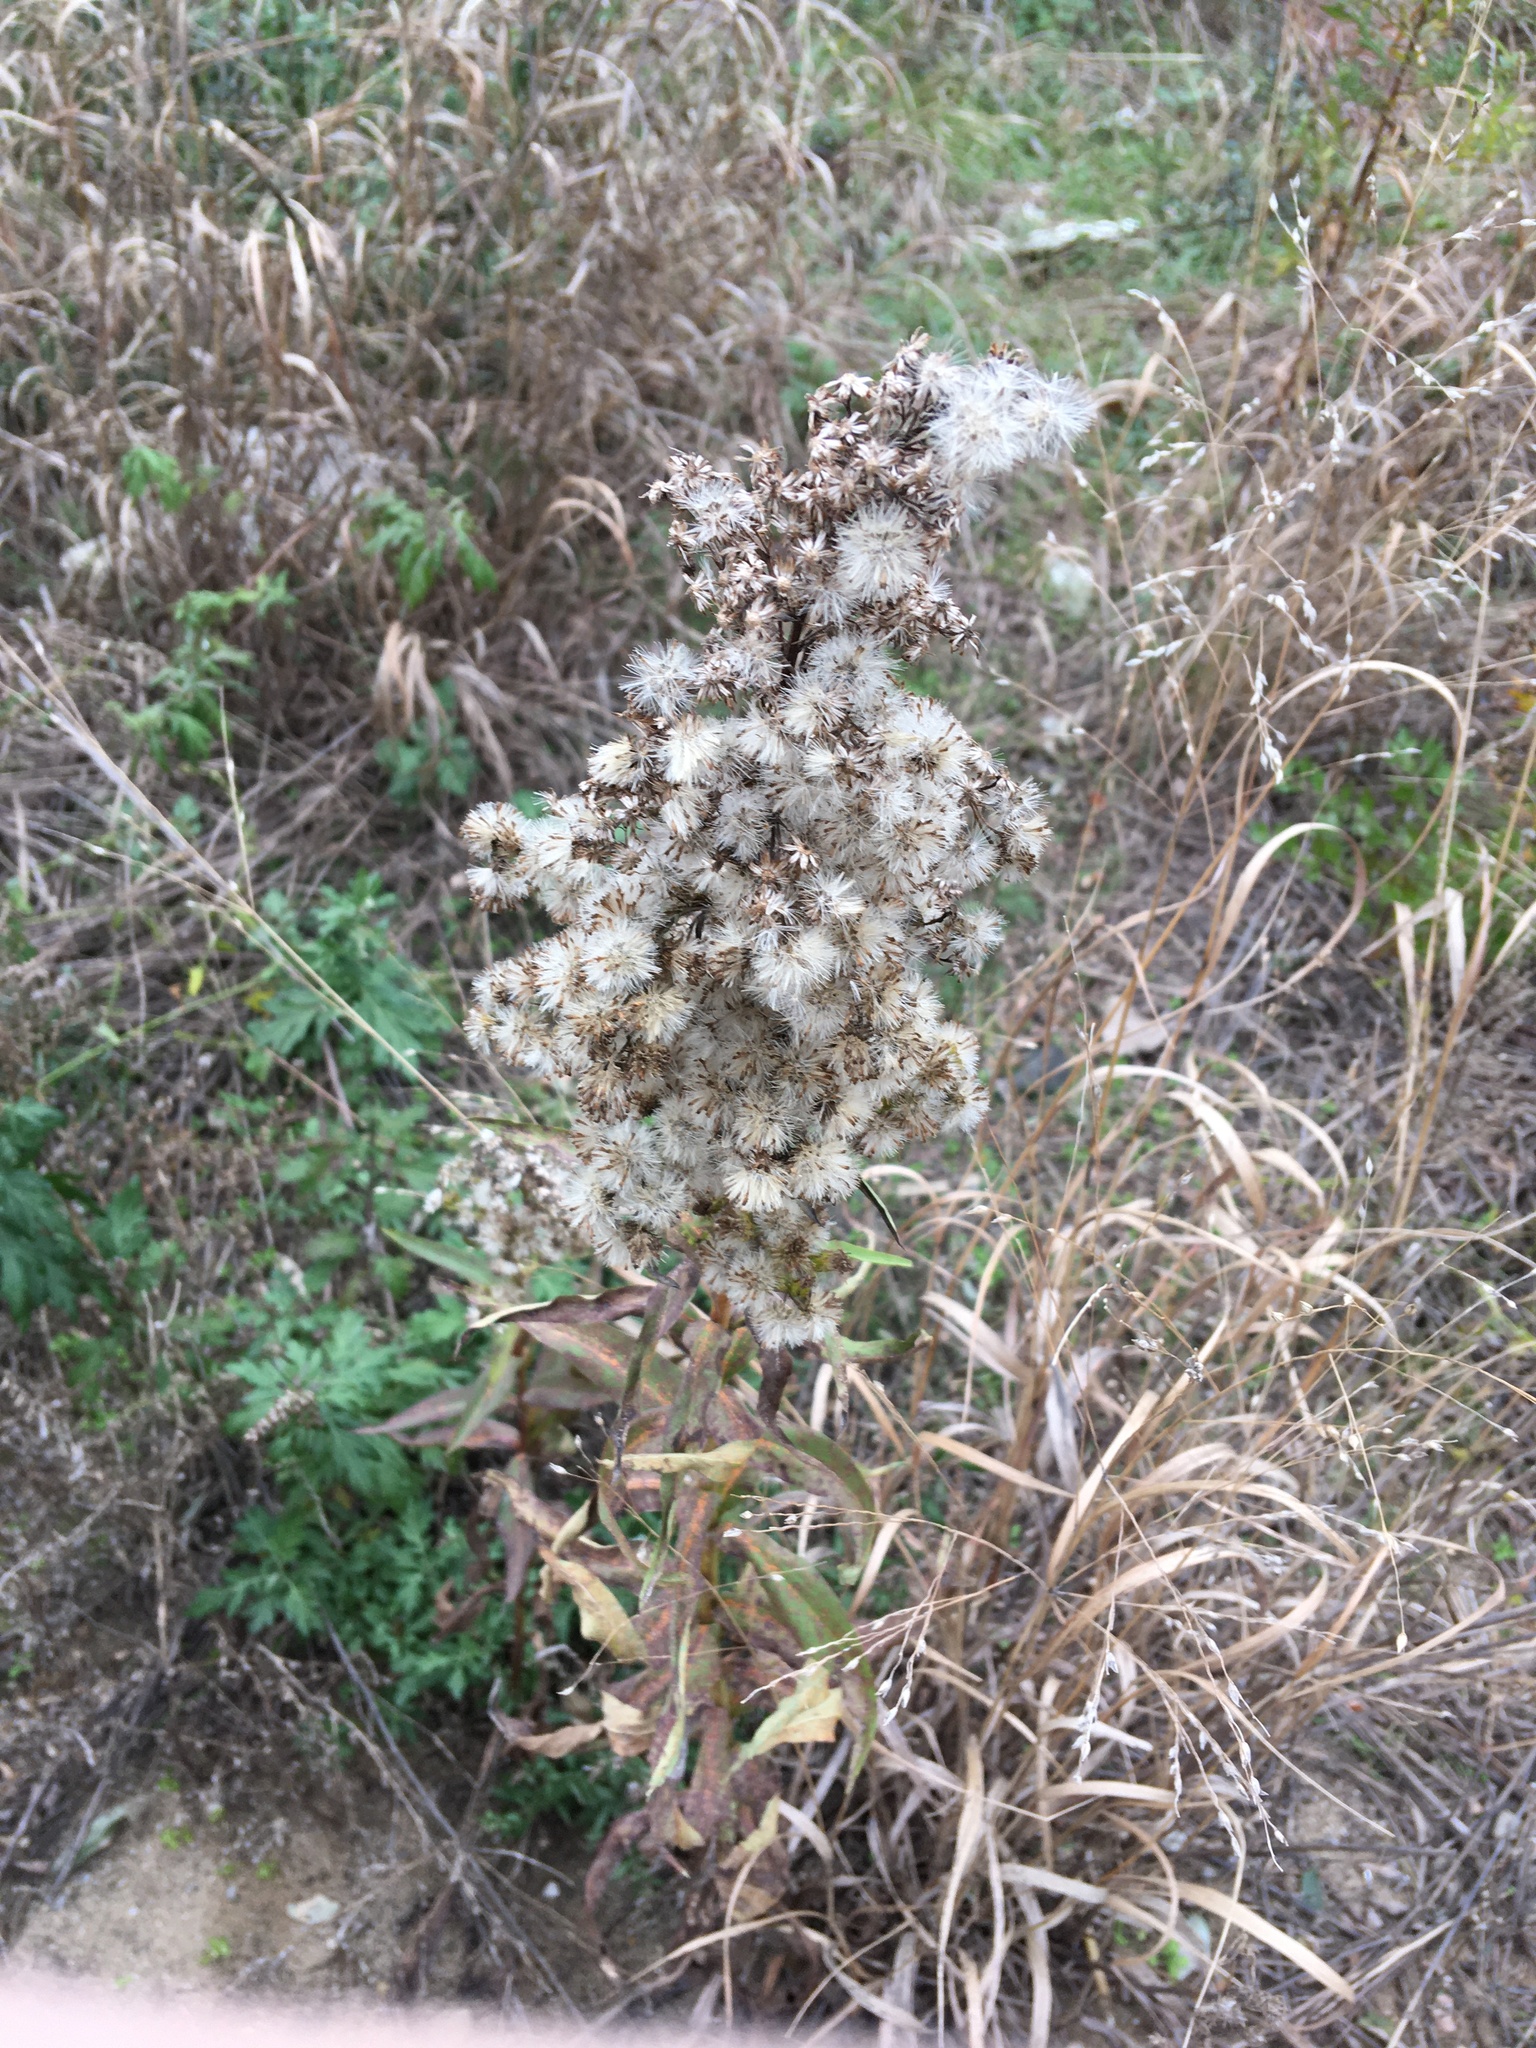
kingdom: Plantae
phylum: Tracheophyta
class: Magnoliopsida
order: Asterales
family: Asteraceae
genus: Solidago
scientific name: Solidago sempervirens
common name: Salt-marsh goldenrod
